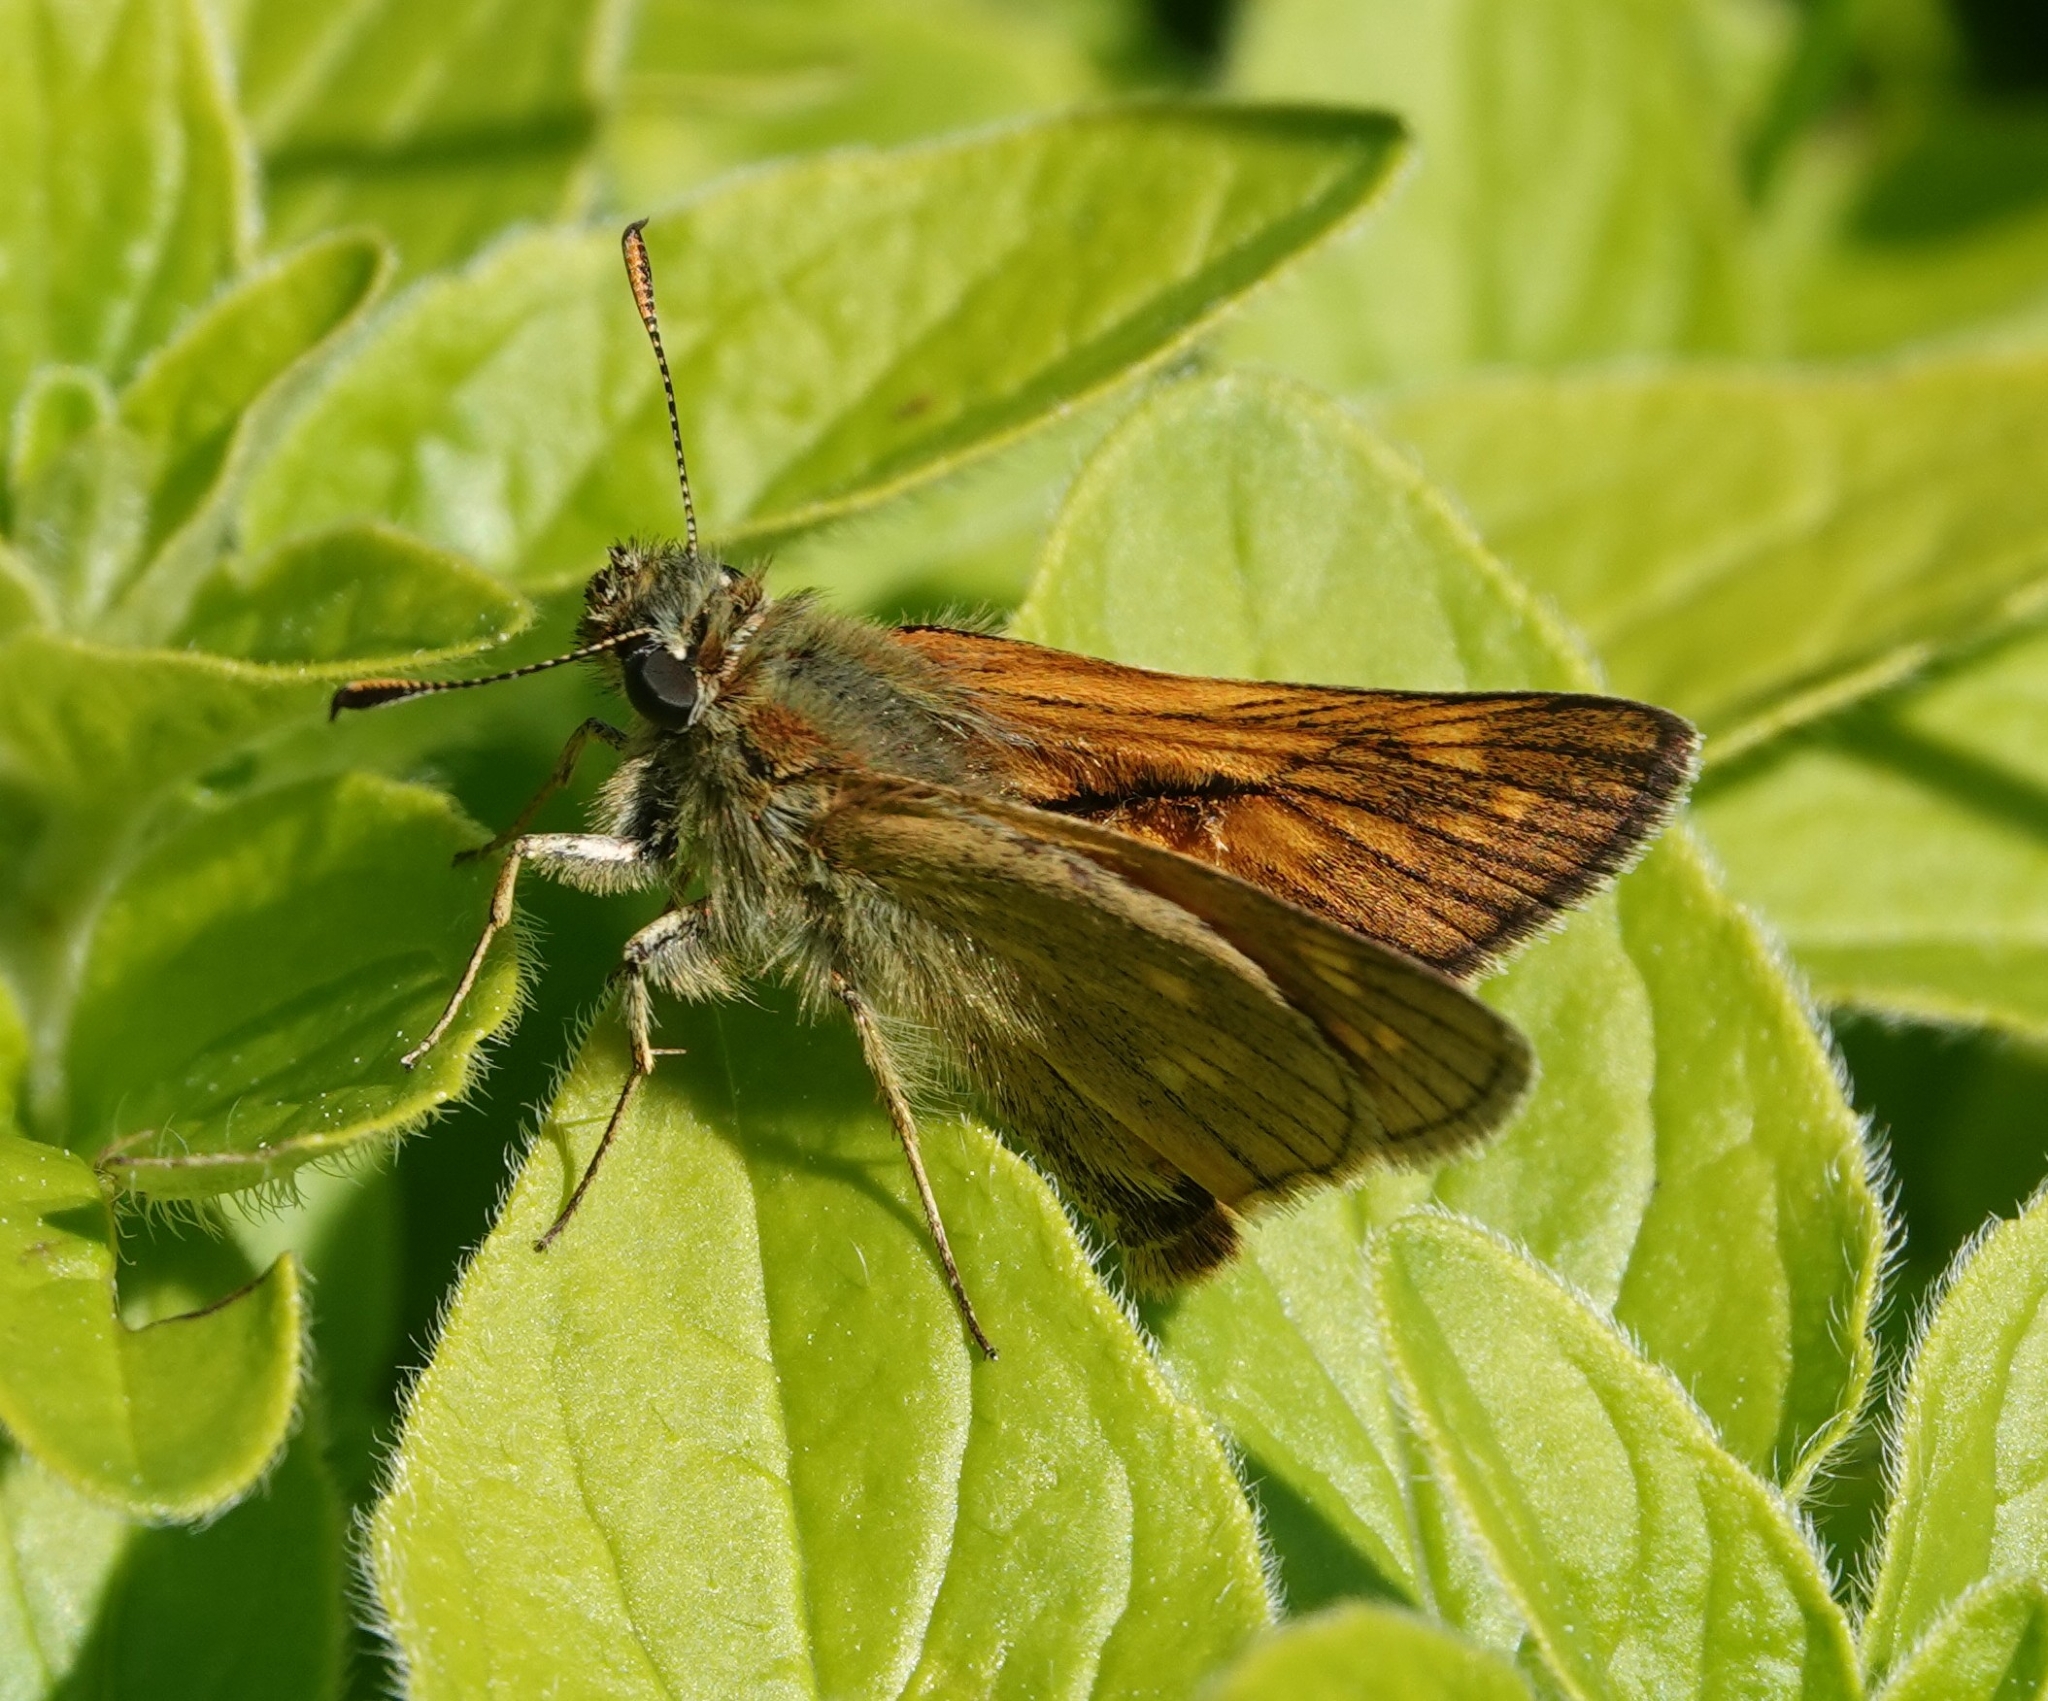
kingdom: Animalia
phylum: Arthropoda
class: Insecta
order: Lepidoptera
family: Hesperiidae
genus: Ochlodes
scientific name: Ochlodes venata
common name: Large skipper
